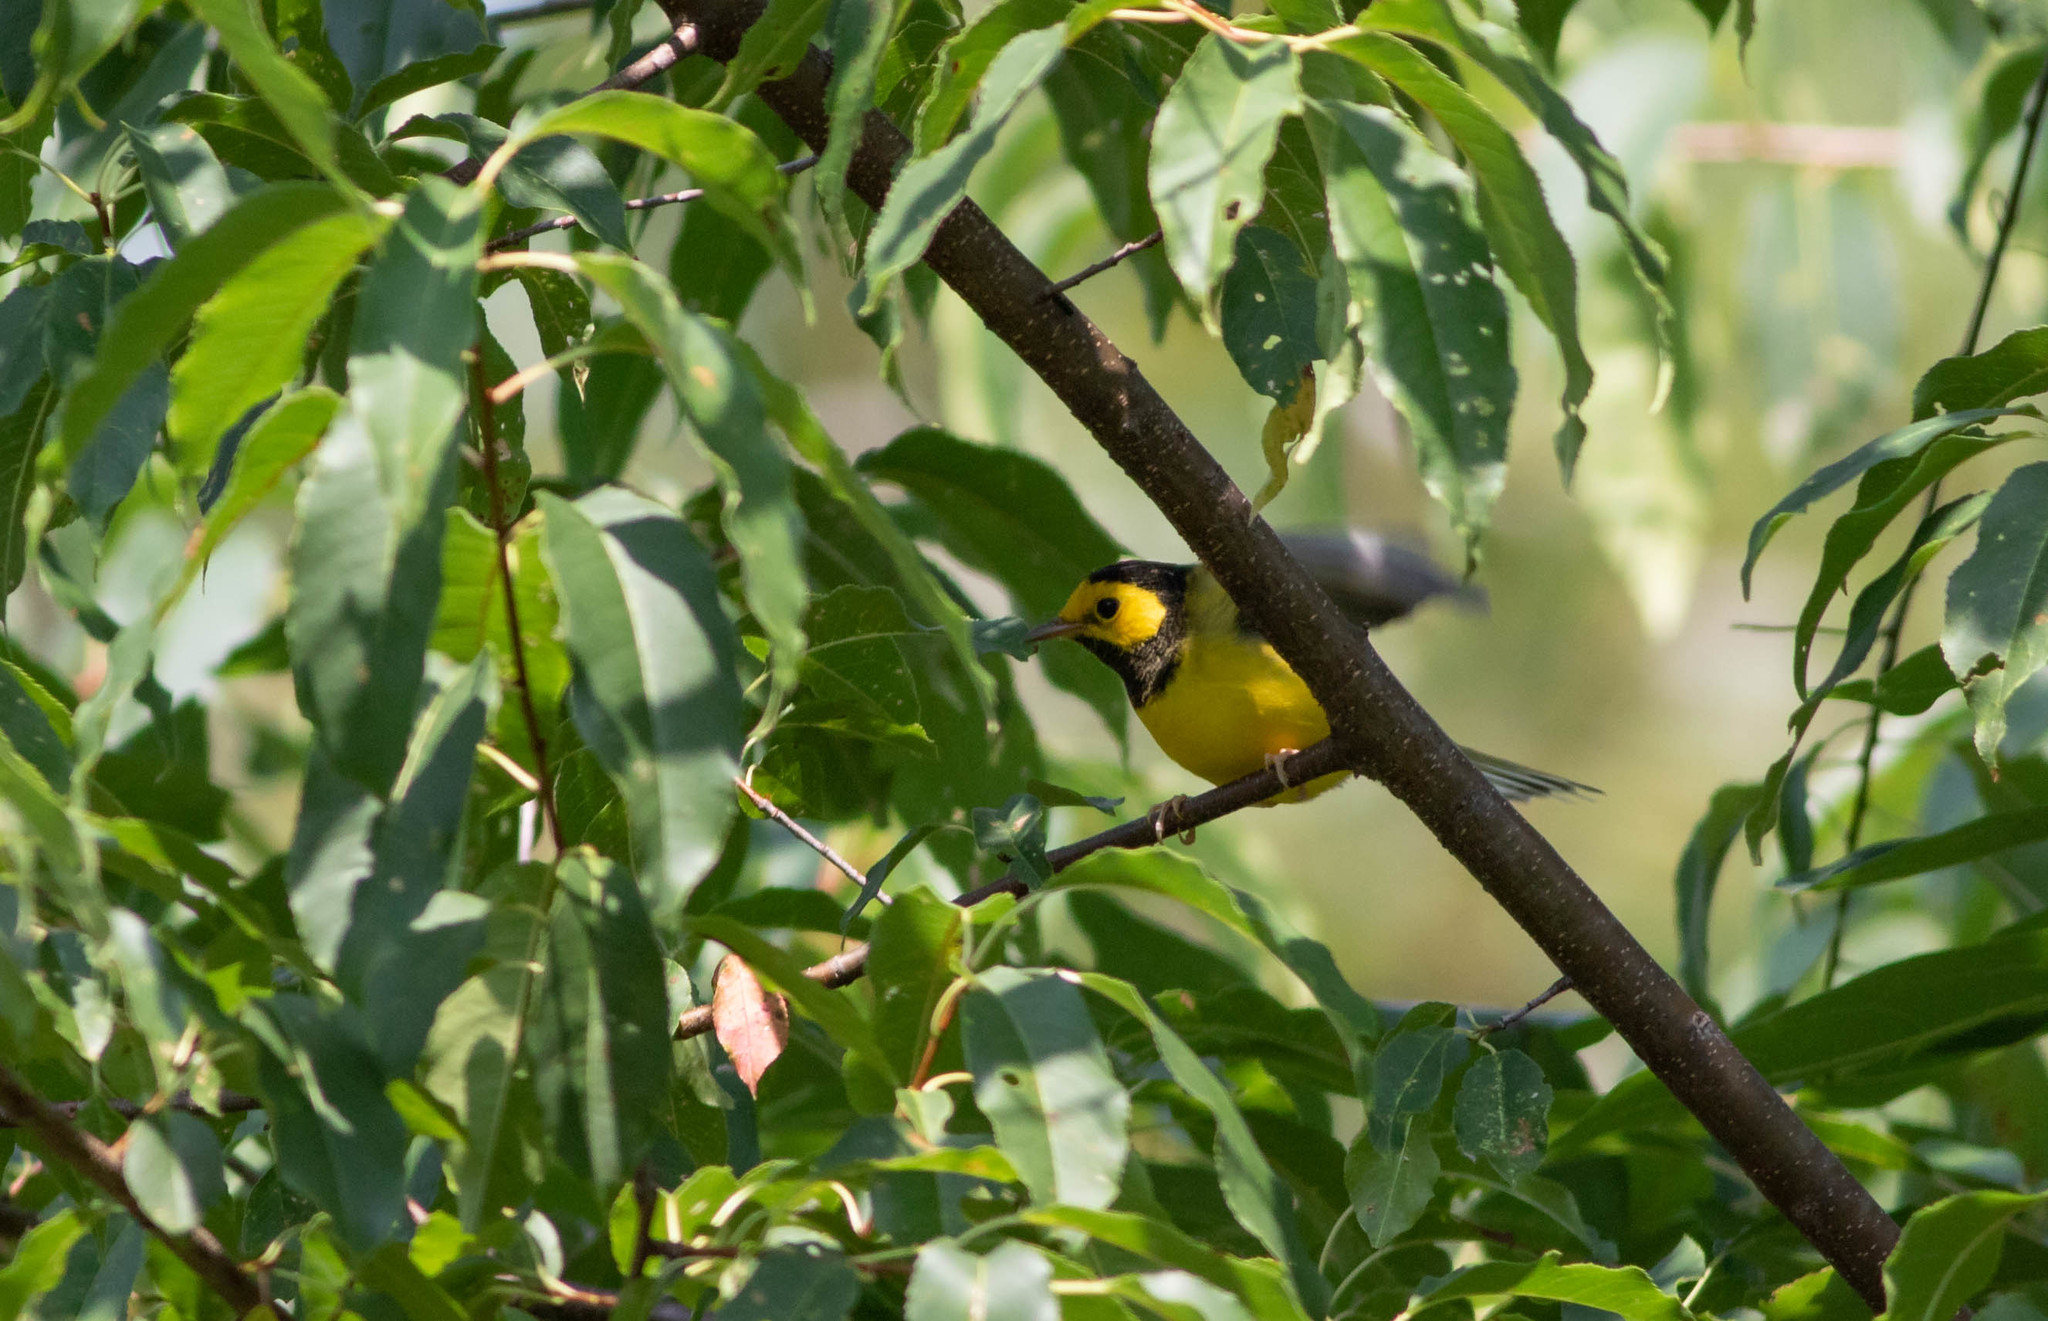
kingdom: Animalia
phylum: Chordata
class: Aves
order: Passeriformes
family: Parulidae
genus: Setophaga
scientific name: Setophaga citrina
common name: Hooded warbler
